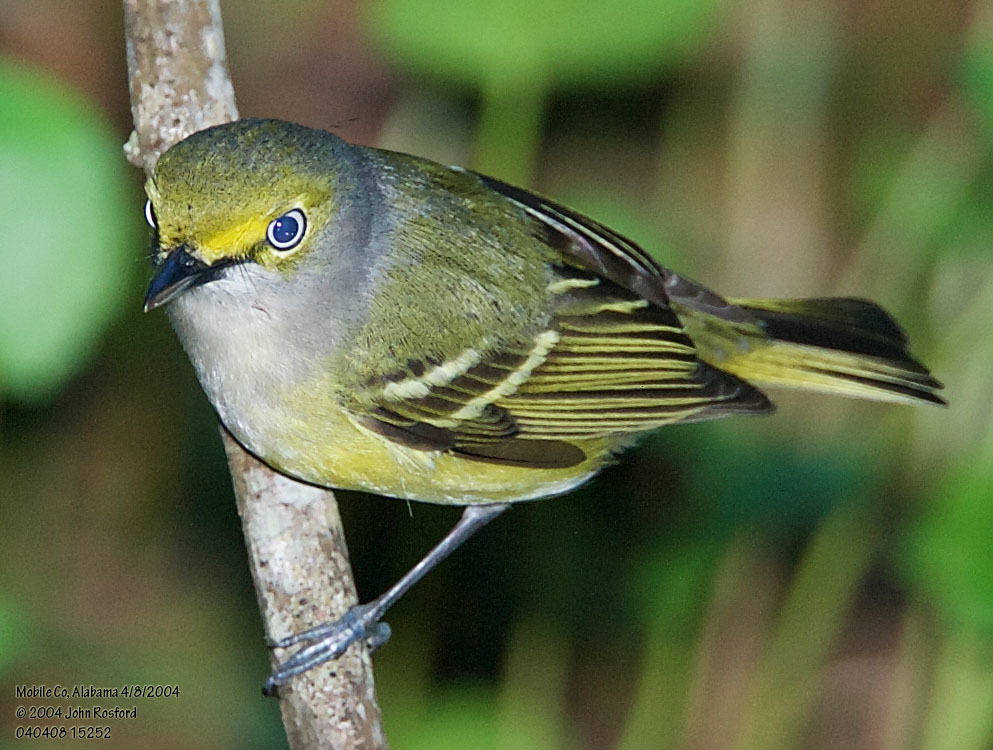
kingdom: Animalia
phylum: Chordata
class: Aves
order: Passeriformes
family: Vireonidae
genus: Vireo
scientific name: Vireo griseus
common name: White-eyed vireo
